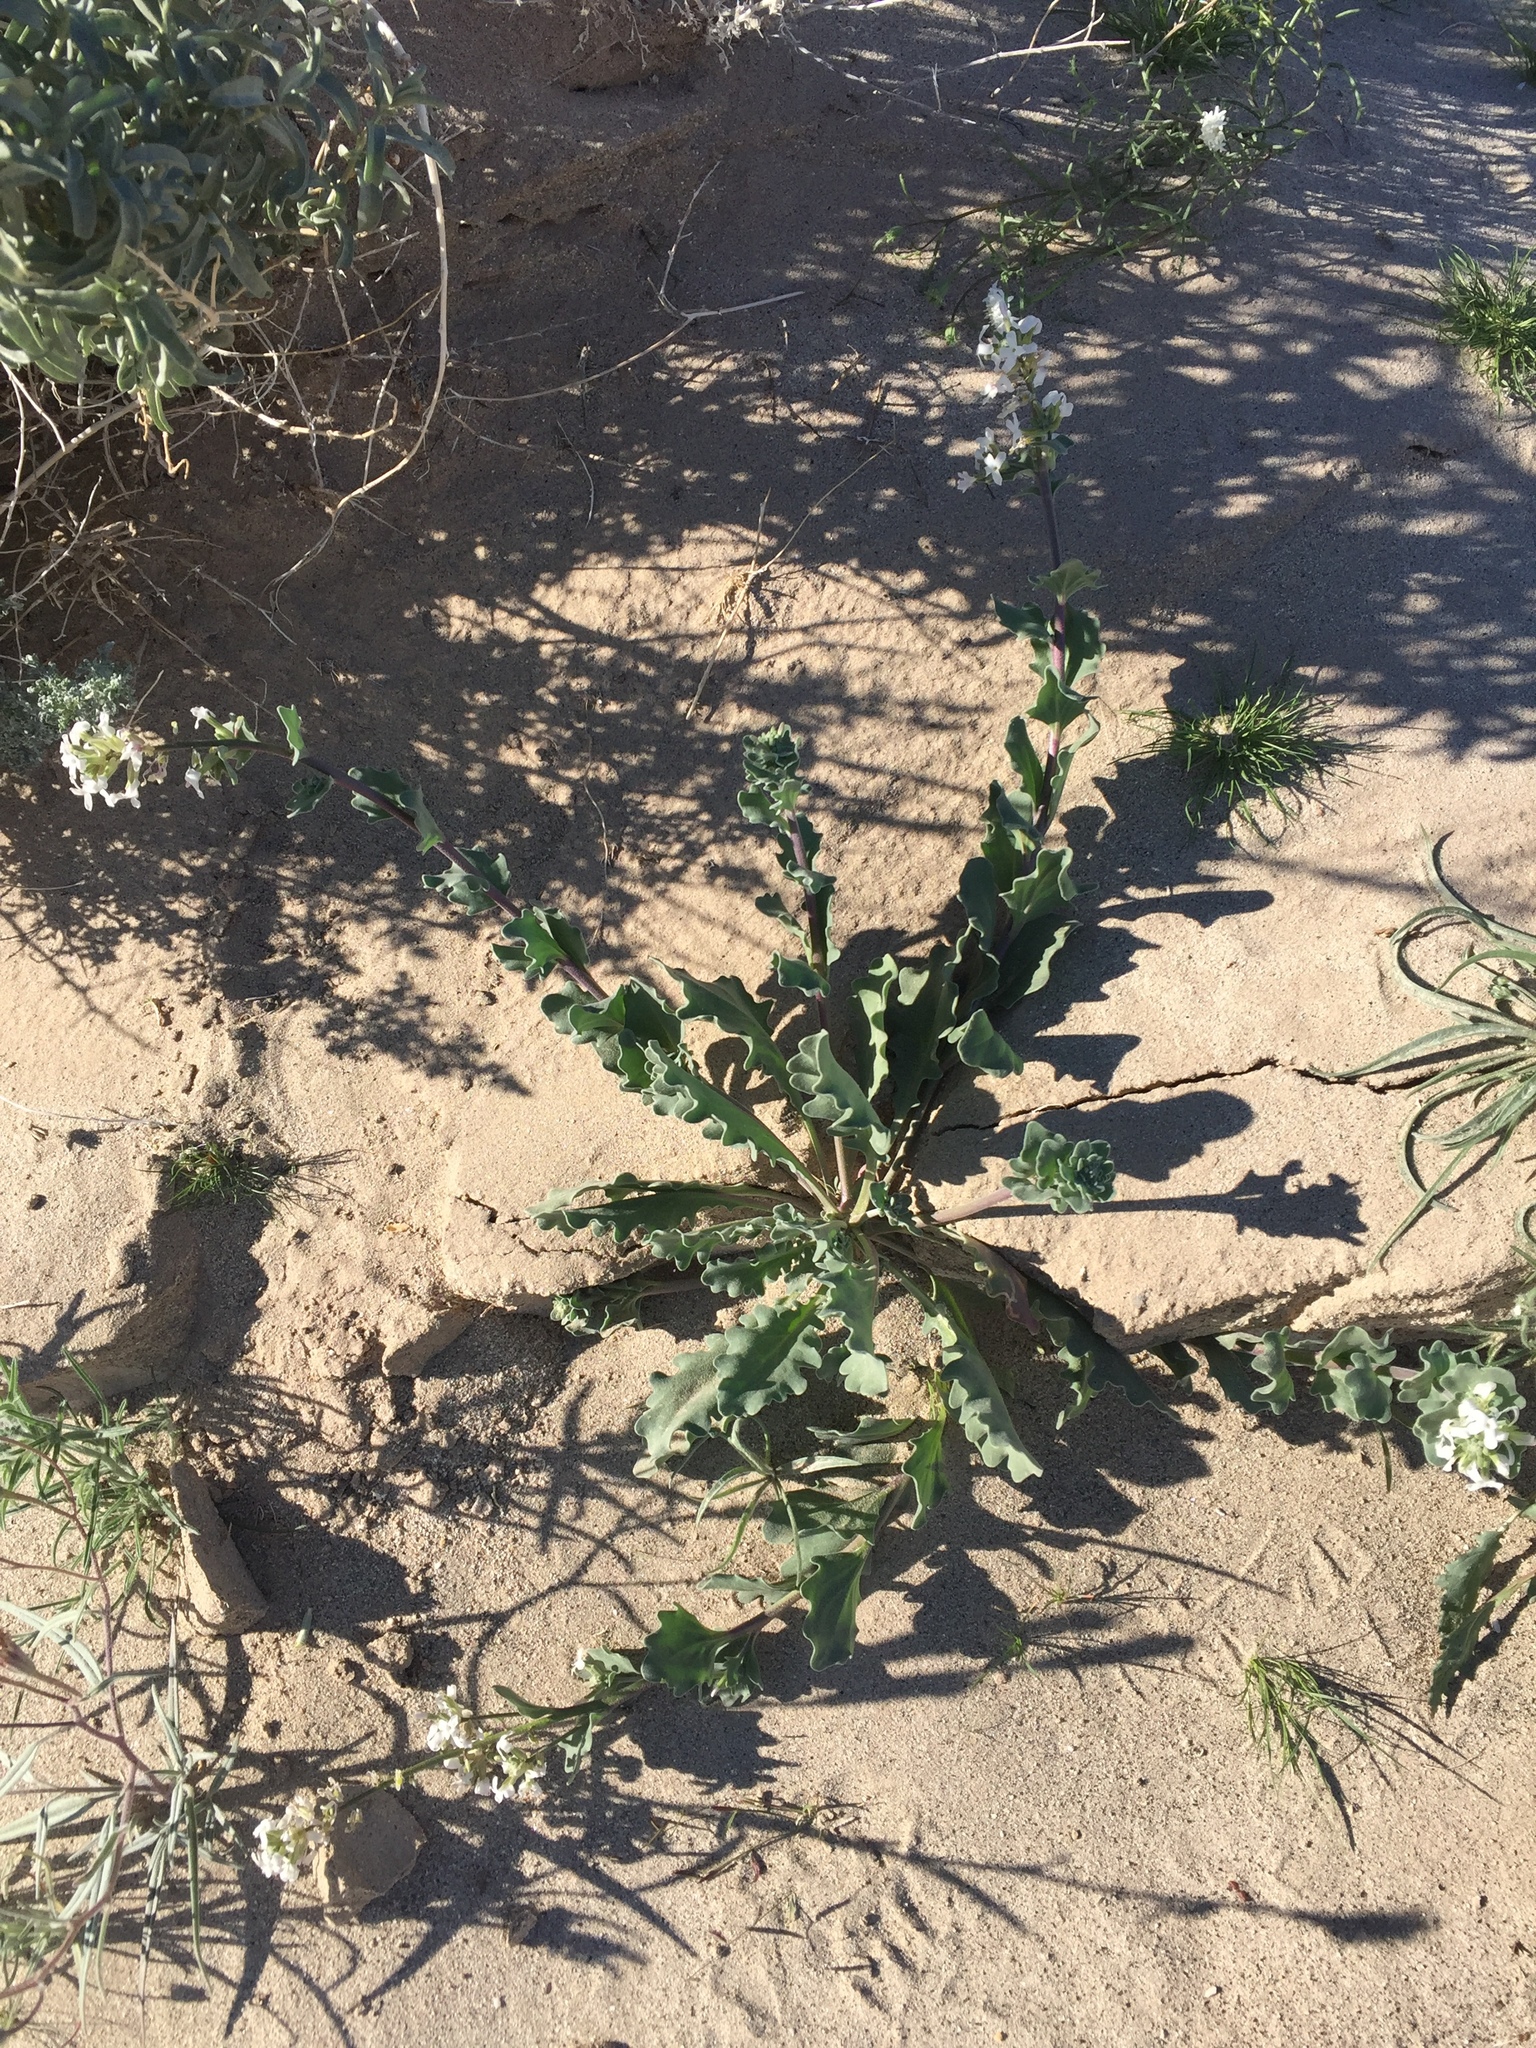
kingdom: Plantae
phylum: Tracheophyta
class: Magnoliopsida
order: Brassicales
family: Brassicaceae
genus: Dithyrea
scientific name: Dithyrea californica
